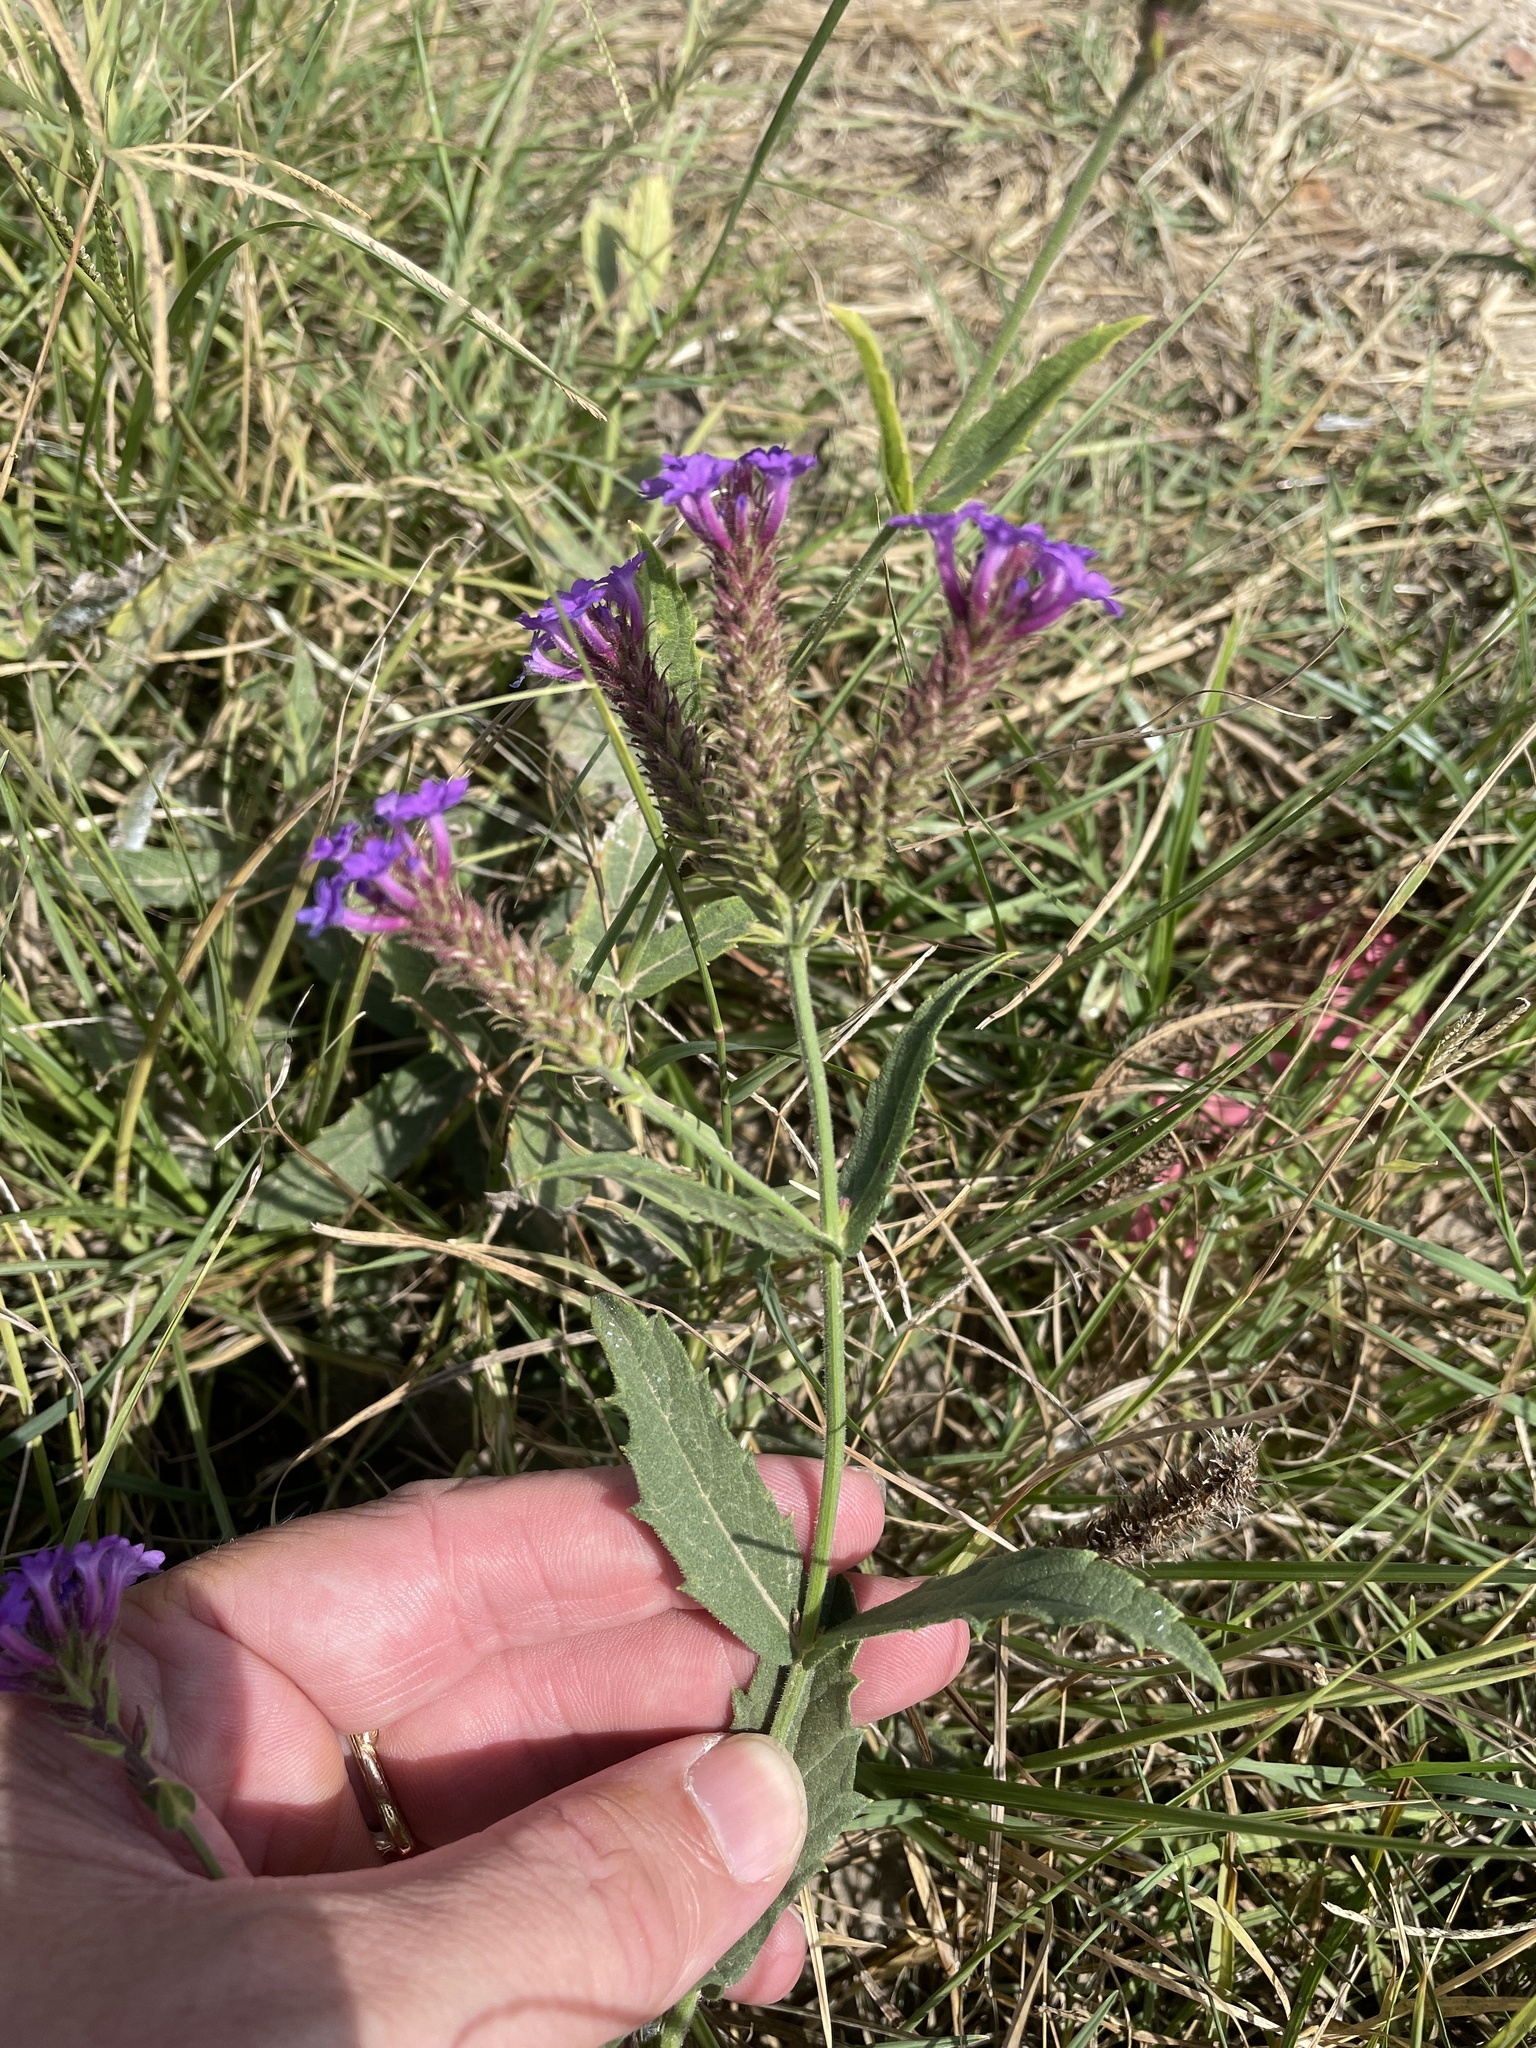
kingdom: Plantae
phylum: Tracheophyta
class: Magnoliopsida
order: Lamiales
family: Verbenaceae
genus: Verbena
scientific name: Verbena rigida
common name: Slender vervain
